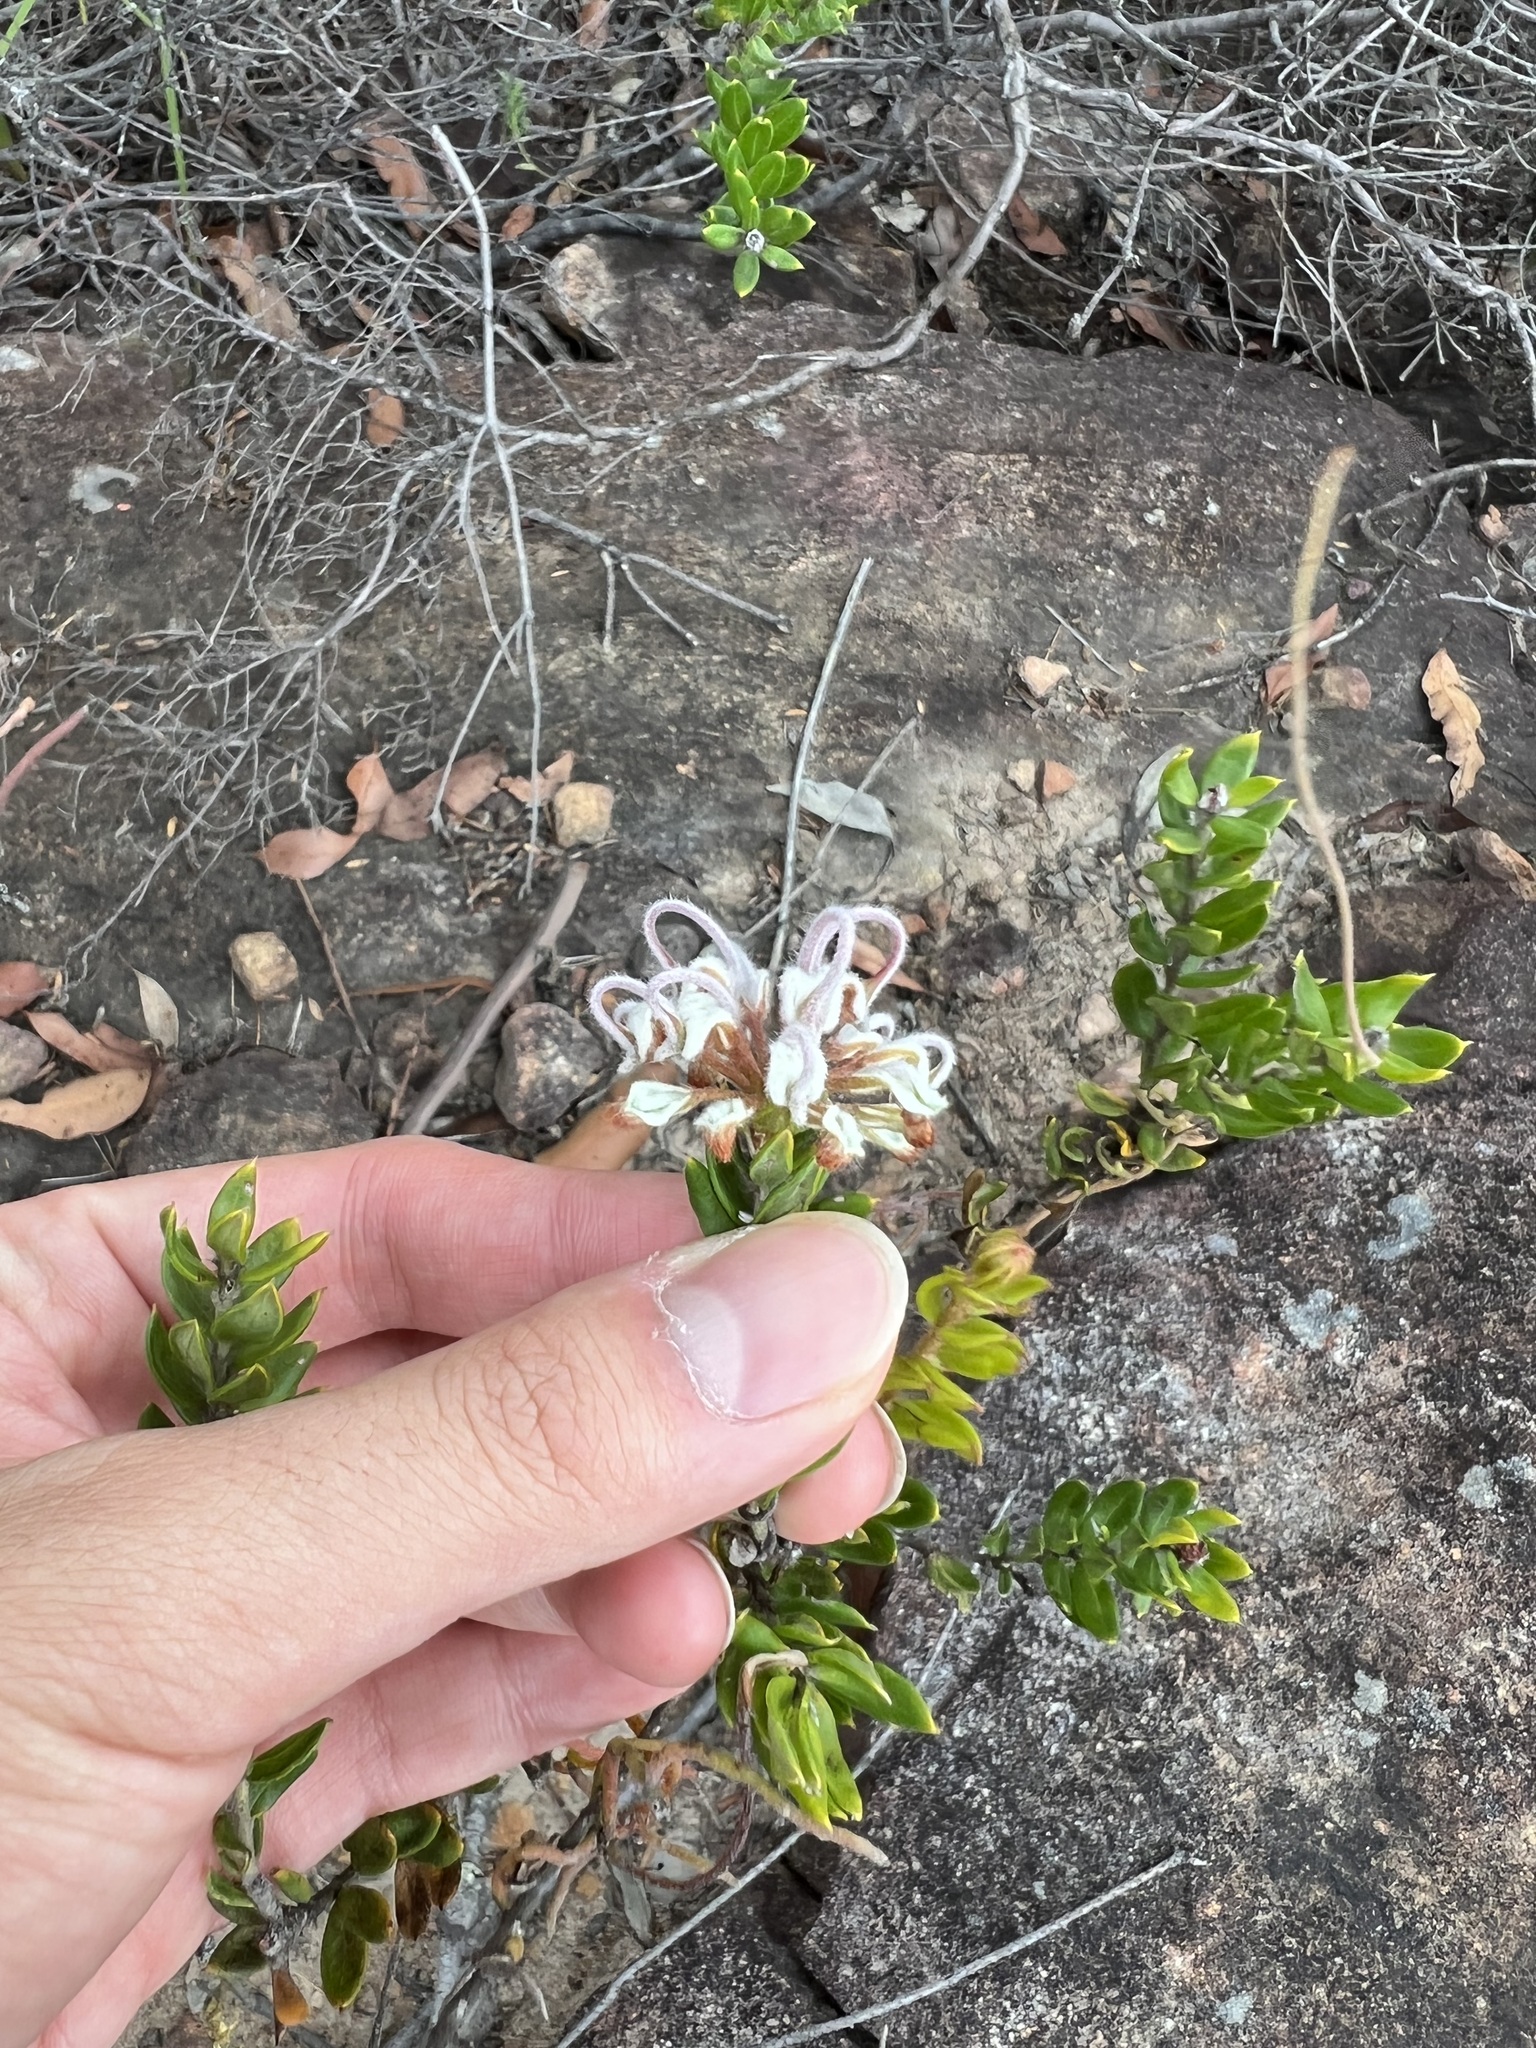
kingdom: Plantae
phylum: Tracheophyta
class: Magnoliopsida
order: Proteales
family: Proteaceae
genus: Grevillea
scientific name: Grevillea buxifolia
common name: Grey spiderflower
